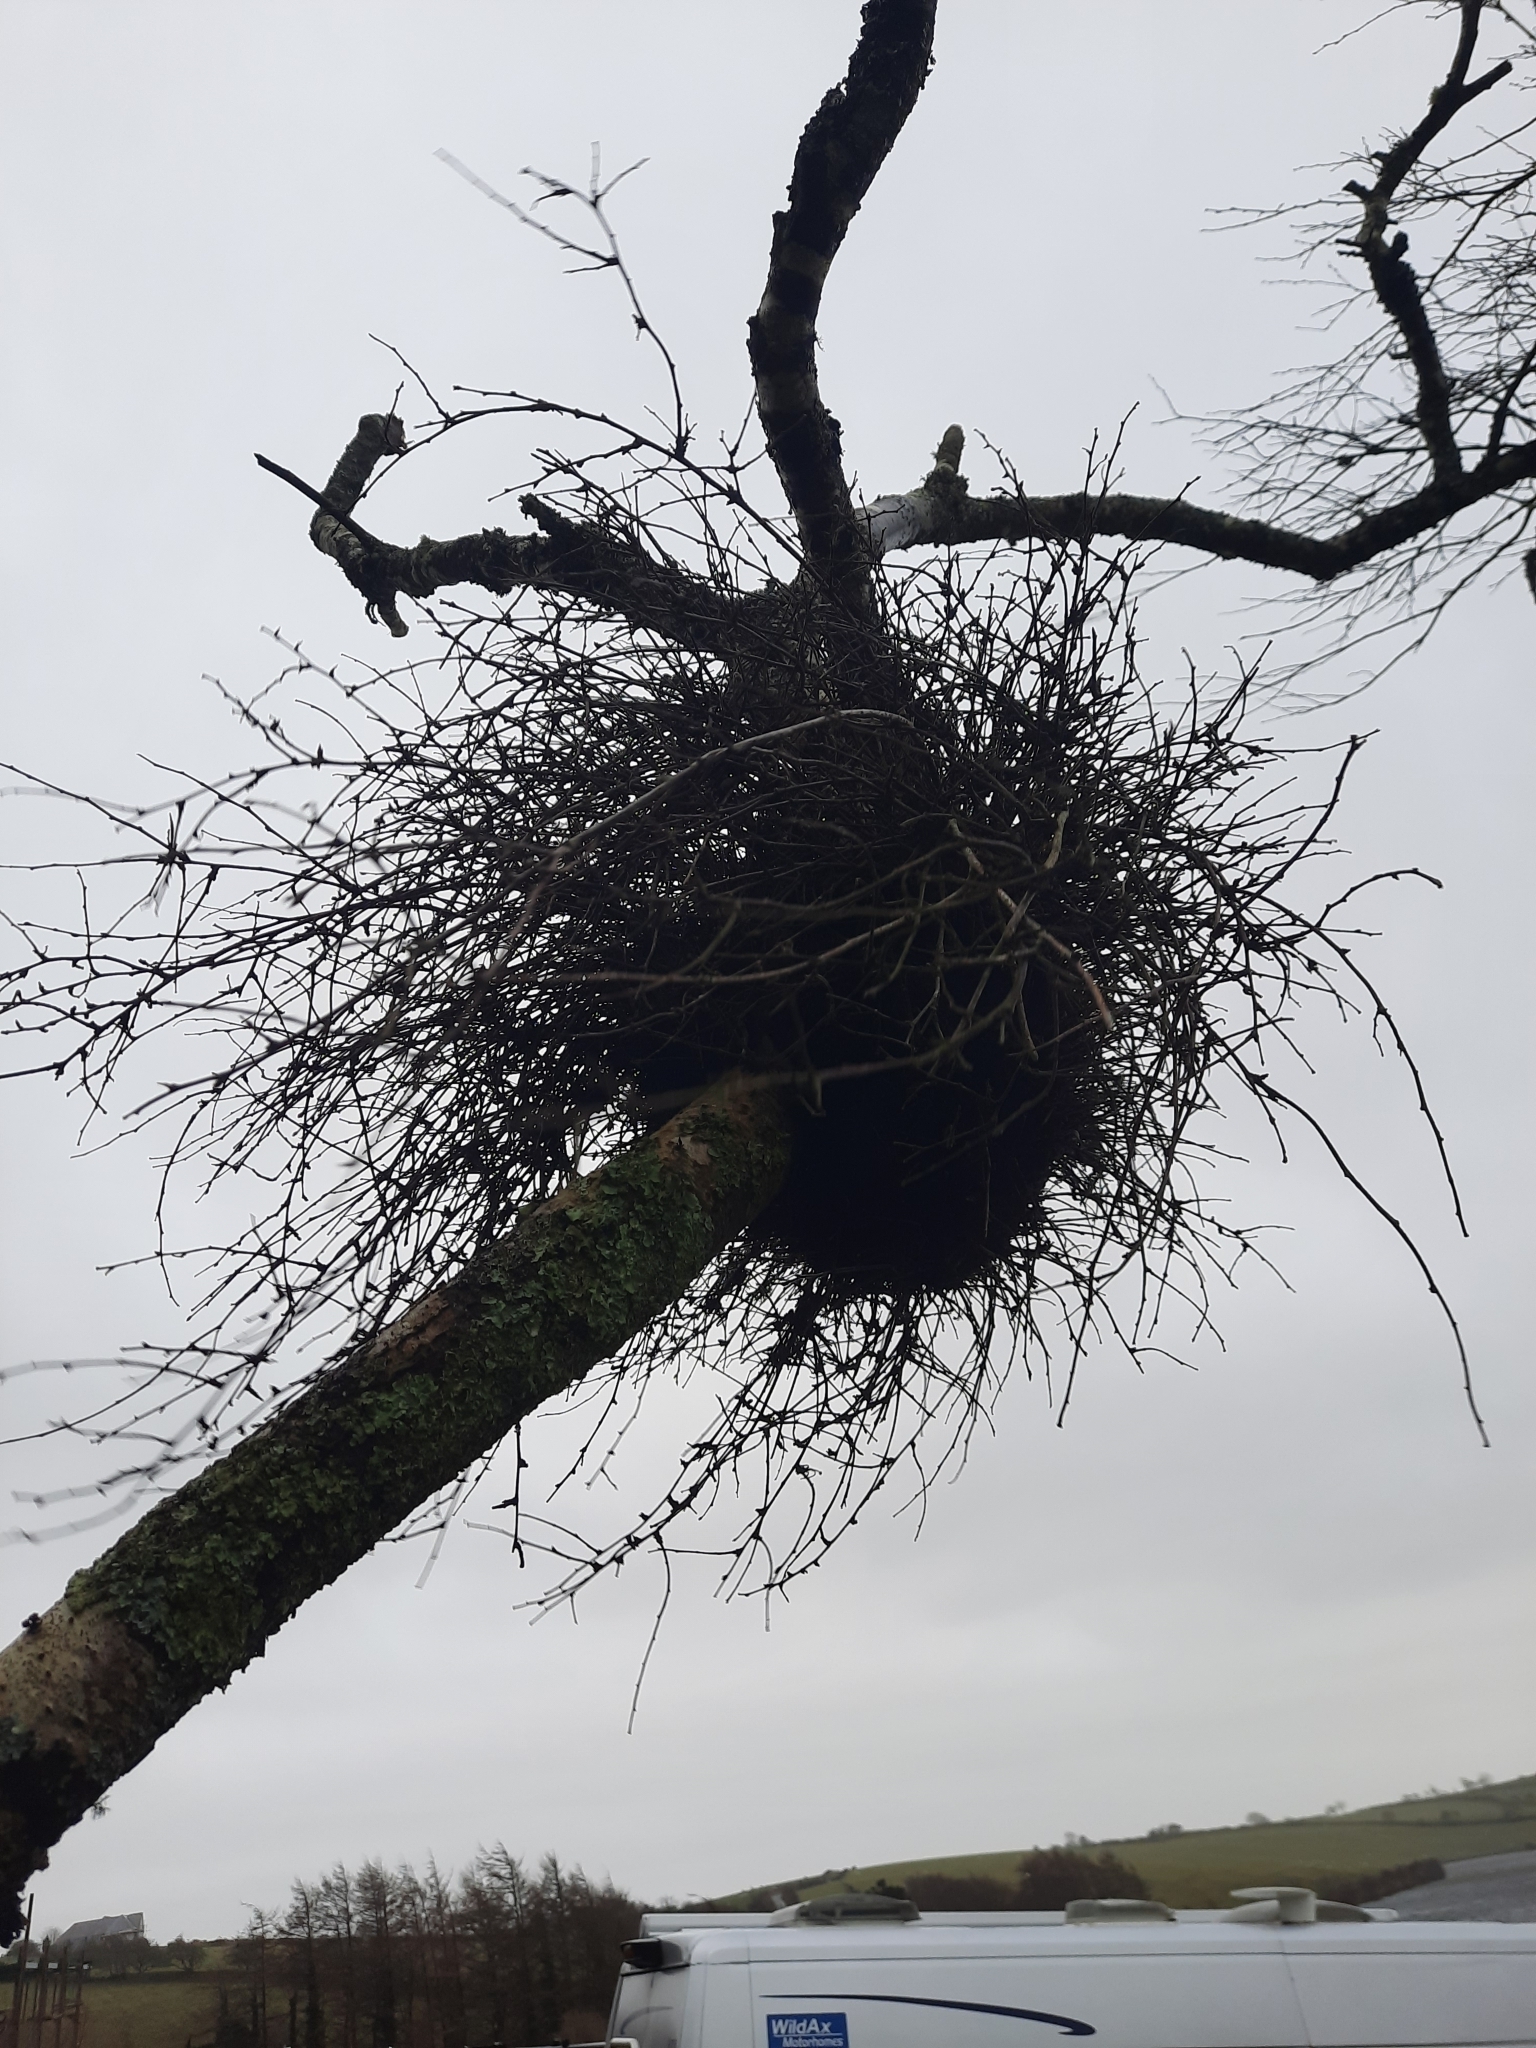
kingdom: Fungi
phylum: Ascomycota
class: Taphrinomycetes
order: Taphrinales
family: Taphrinaceae
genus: Taphrina
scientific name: Taphrina betulina
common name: Birch besom
